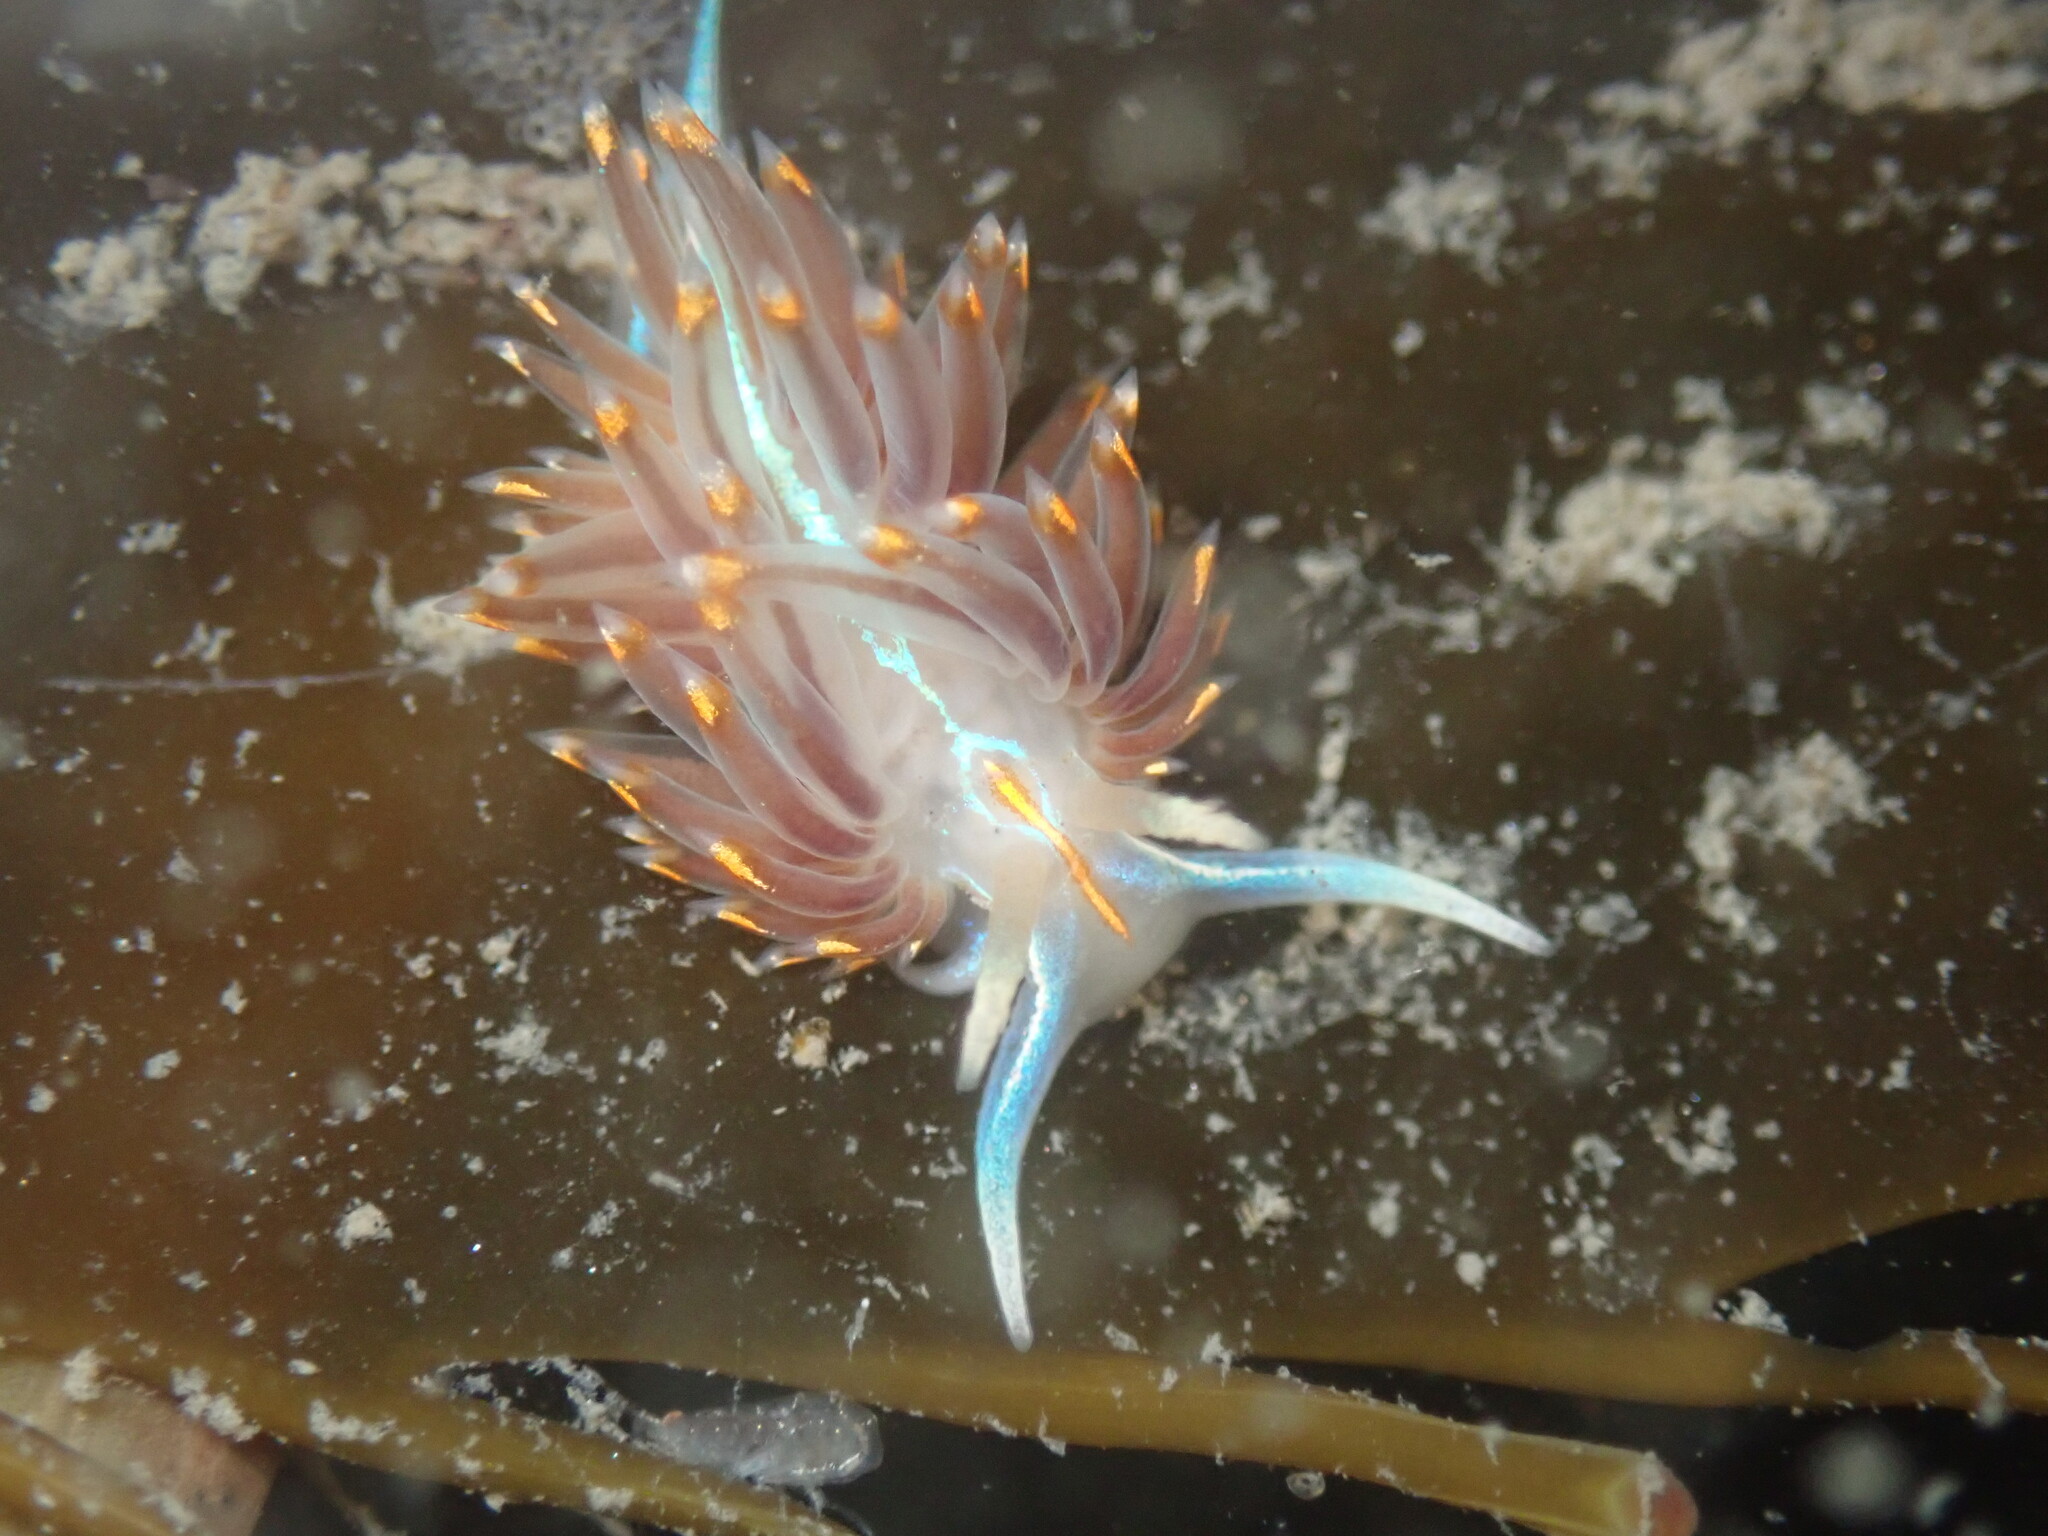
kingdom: Animalia
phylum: Mollusca
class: Gastropoda
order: Nudibranchia
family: Myrrhinidae
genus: Hermissenda
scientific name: Hermissenda opalescens
